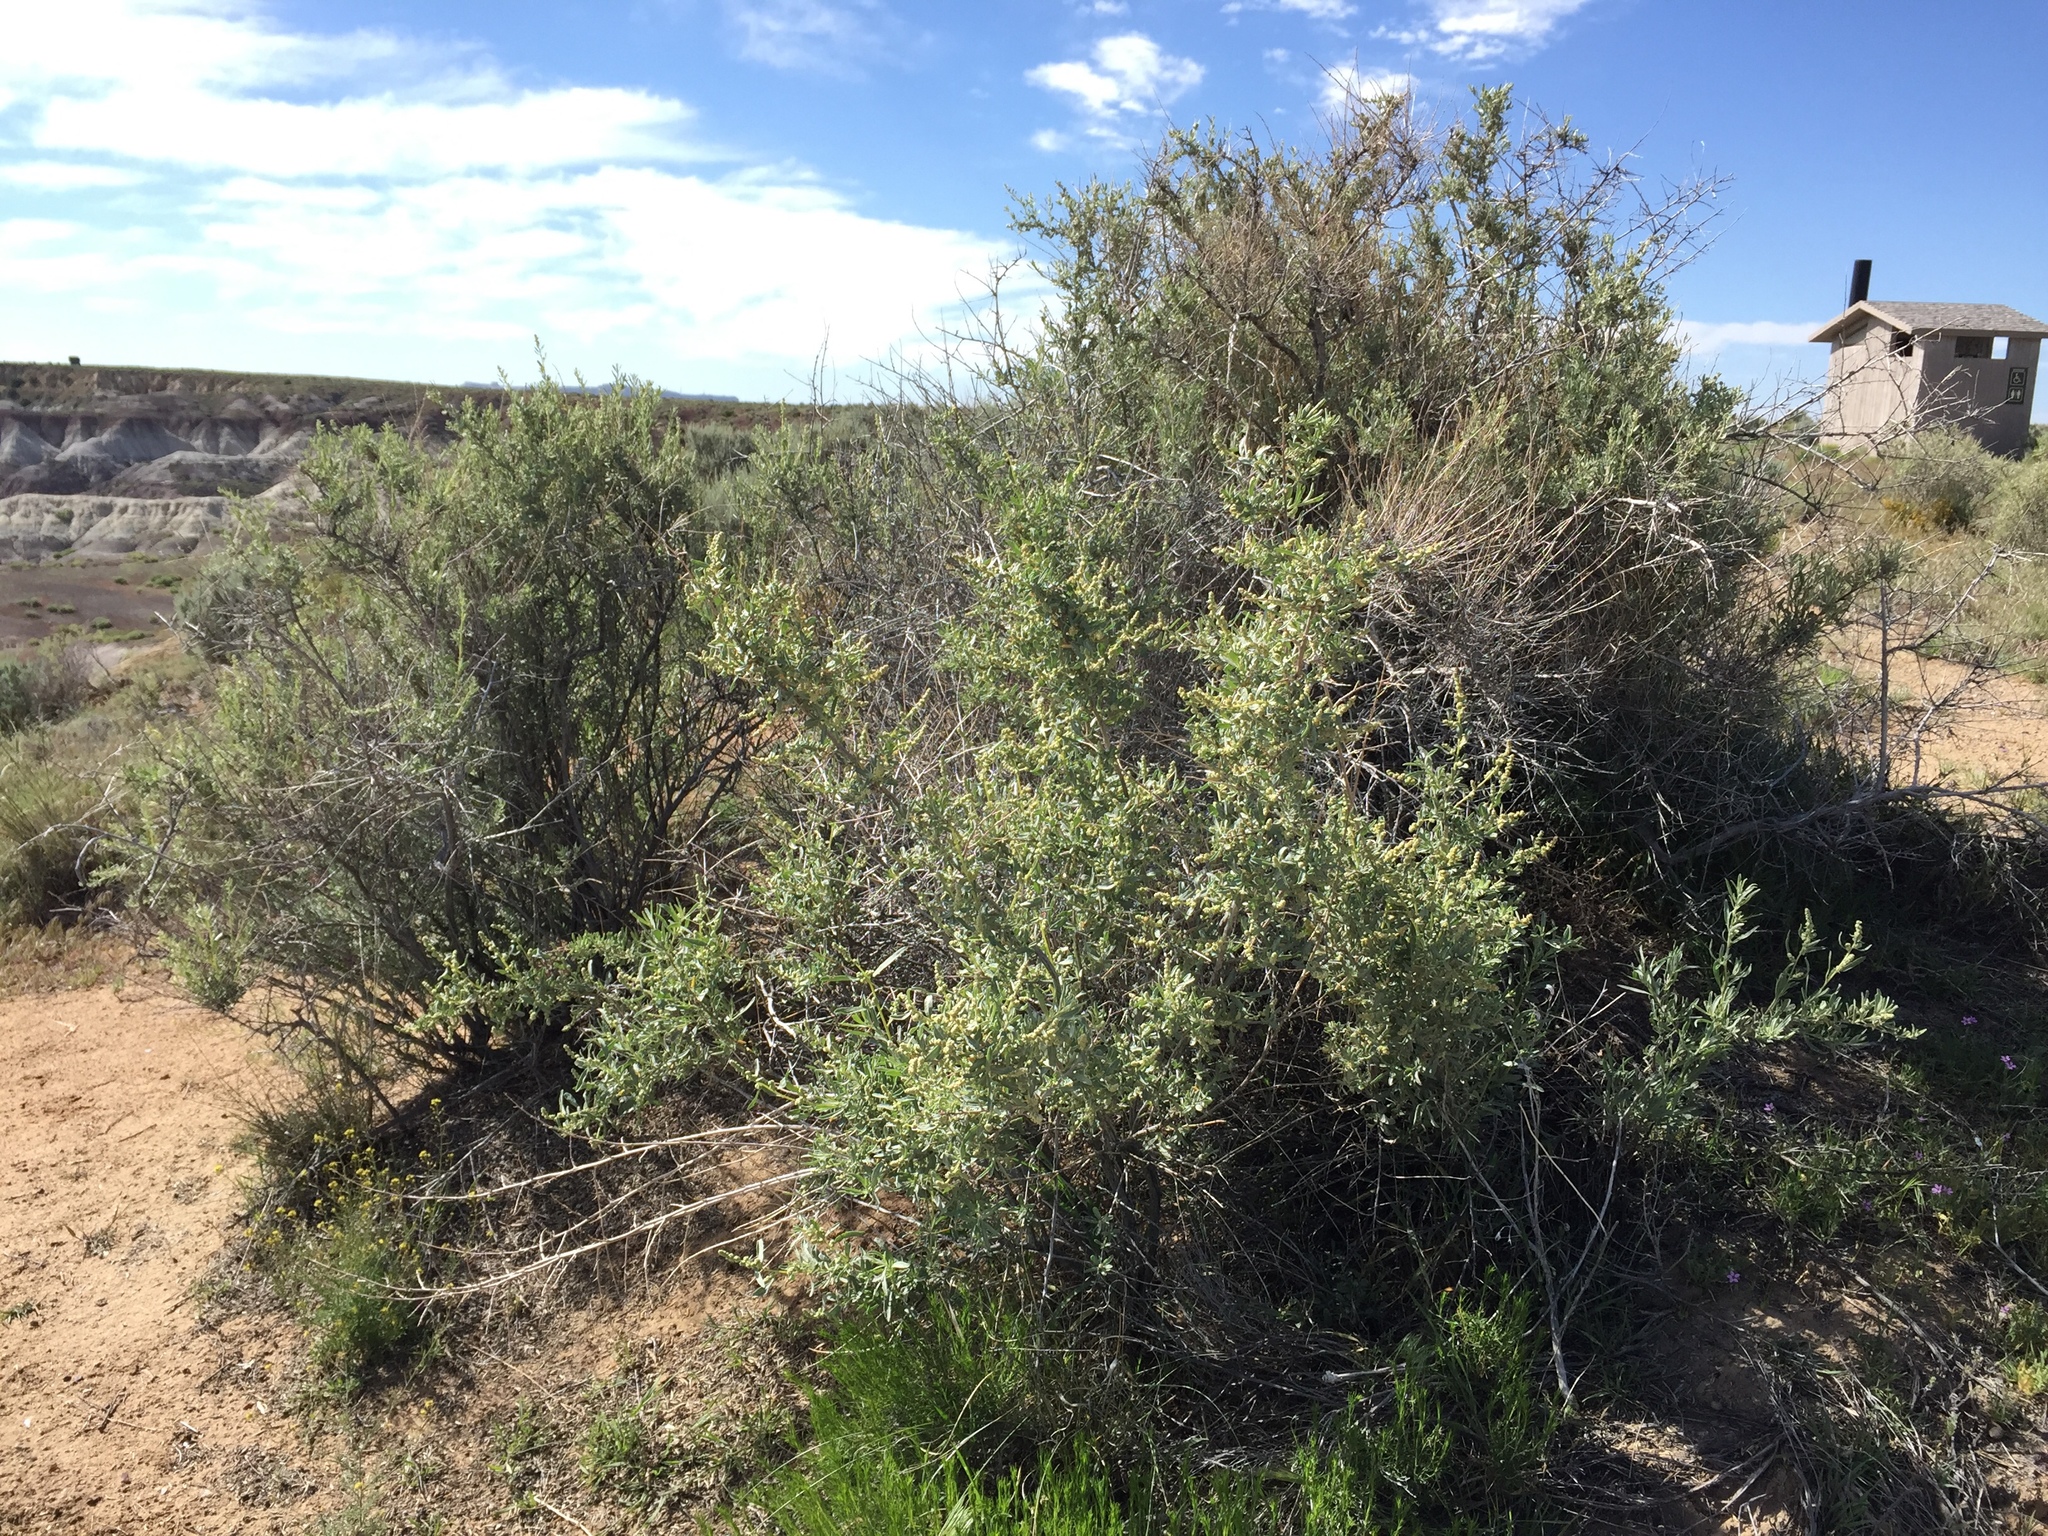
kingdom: Plantae
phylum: Tracheophyta
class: Magnoliopsida
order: Caryophyllales
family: Amaranthaceae
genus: Atriplex
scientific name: Atriplex canescens
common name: Four-wing saltbush
